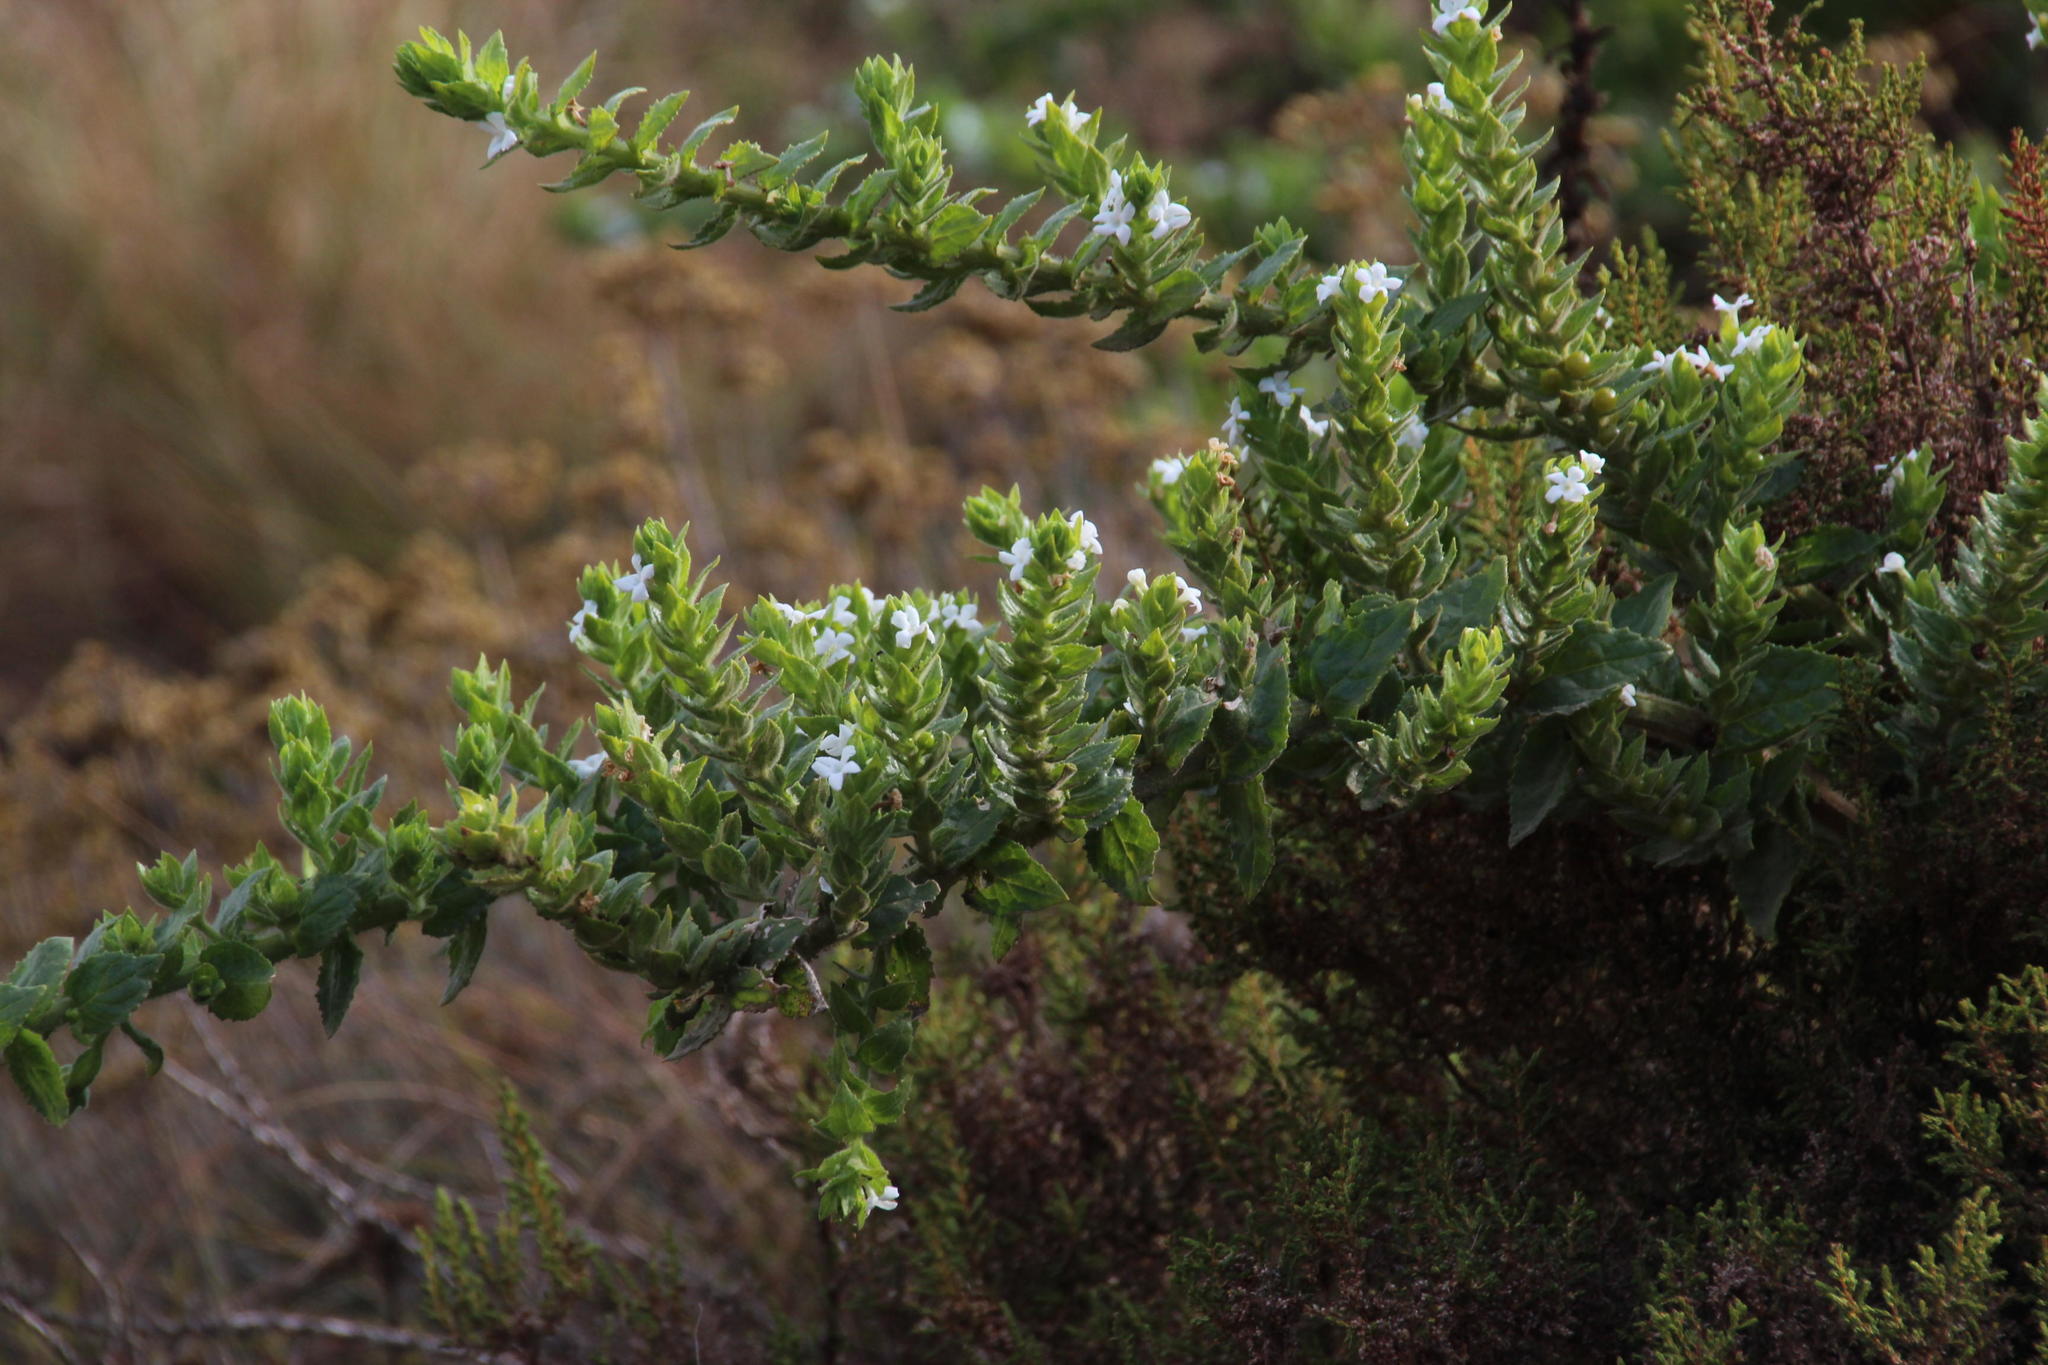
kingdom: Plantae
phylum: Tracheophyta
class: Magnoliopsida
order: Lamiales
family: Scrophulariaceae
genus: Oftia
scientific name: Oftia africana
